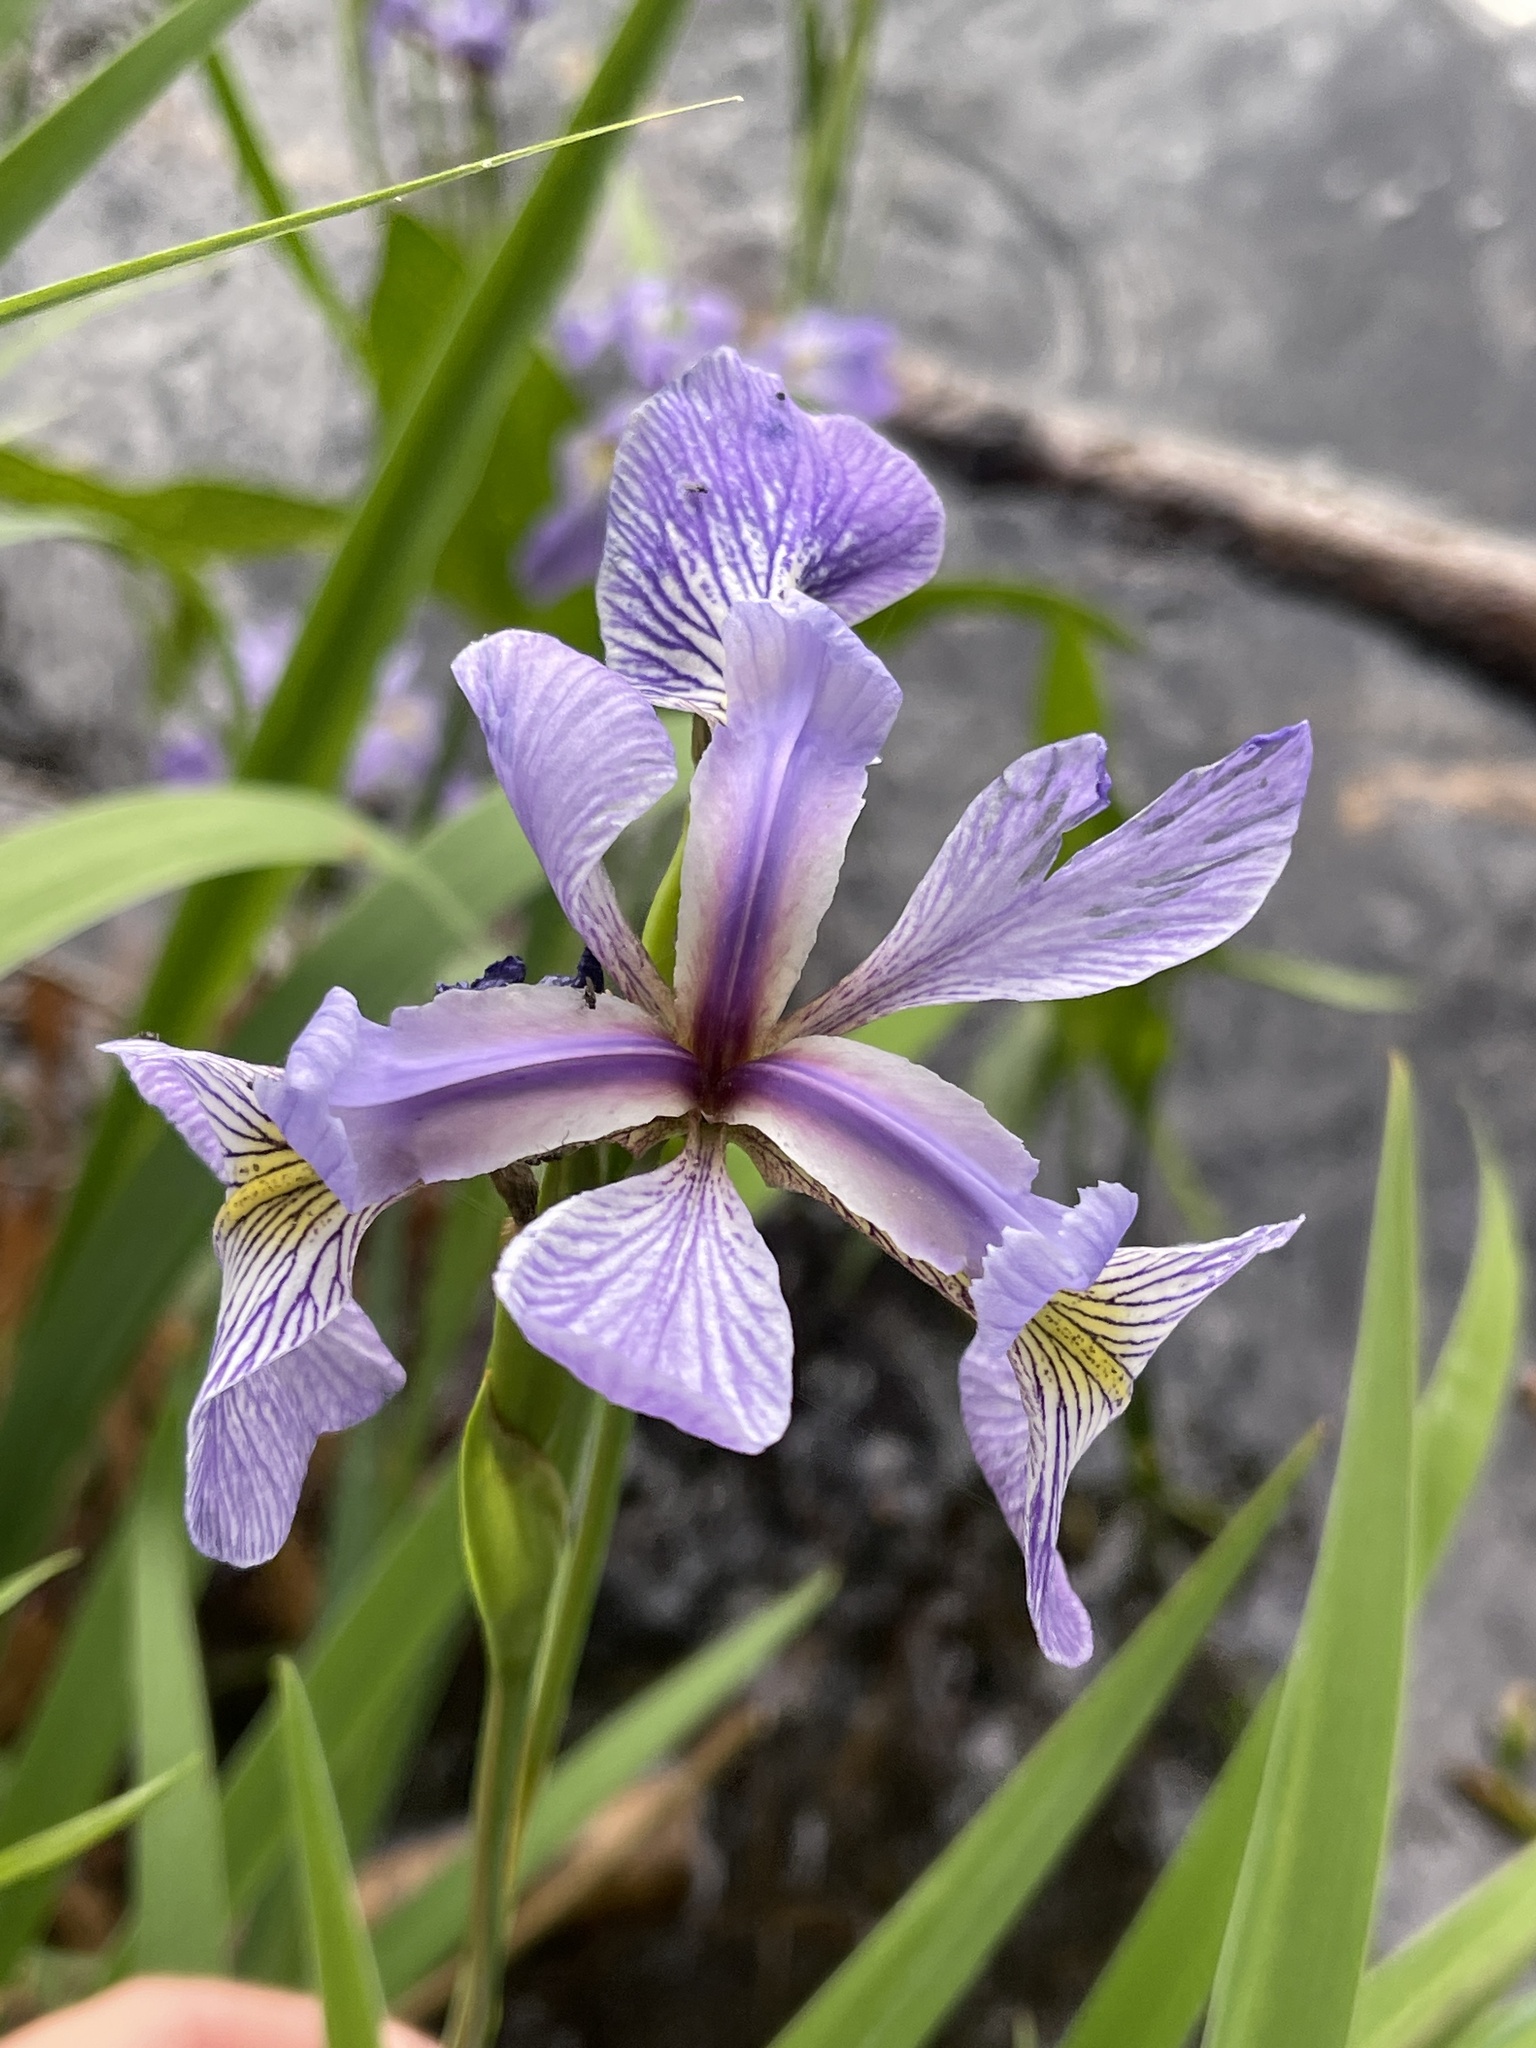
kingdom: Plantae
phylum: Tracheophyta
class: Liliopsida
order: Asparagales
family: Iridaceae
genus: Iris
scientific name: Iris versicolor
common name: Purple iris
